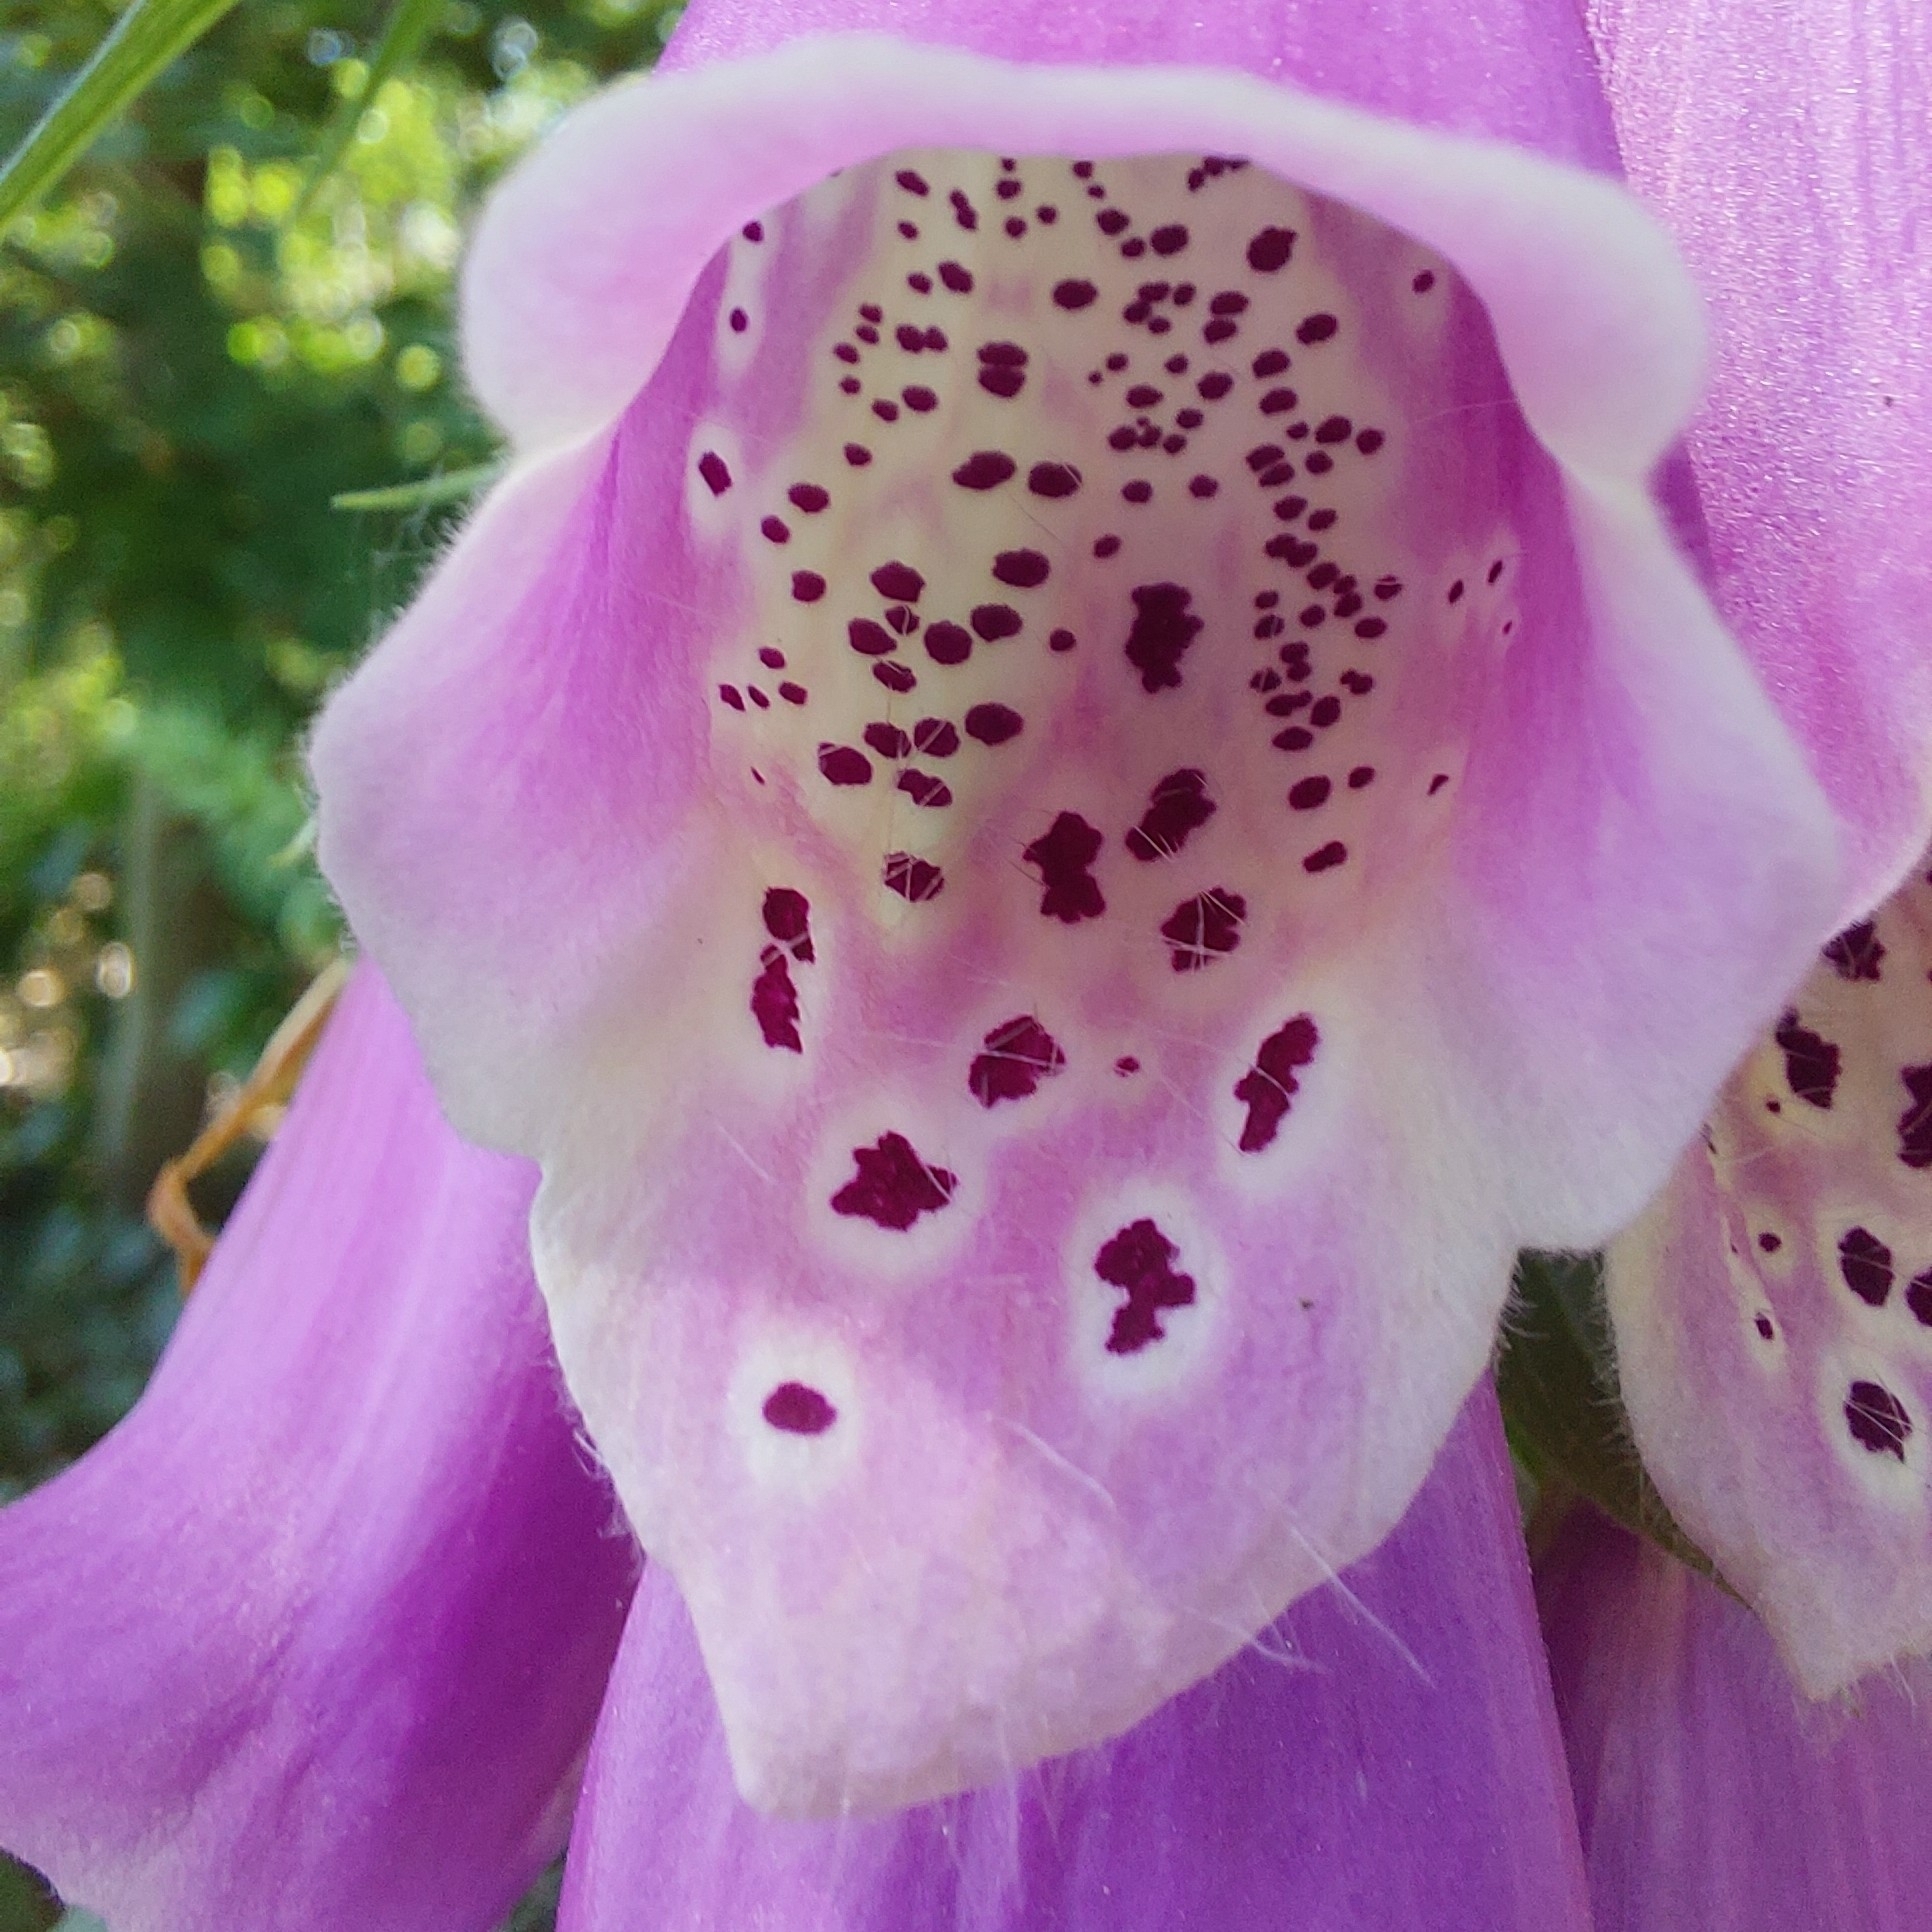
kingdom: Plantae
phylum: Tracheophyta
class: Magnoliopsida
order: Lamiales
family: Plantaginaceae
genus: Digitalis
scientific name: Digitalis purpurea
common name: Foxglove
